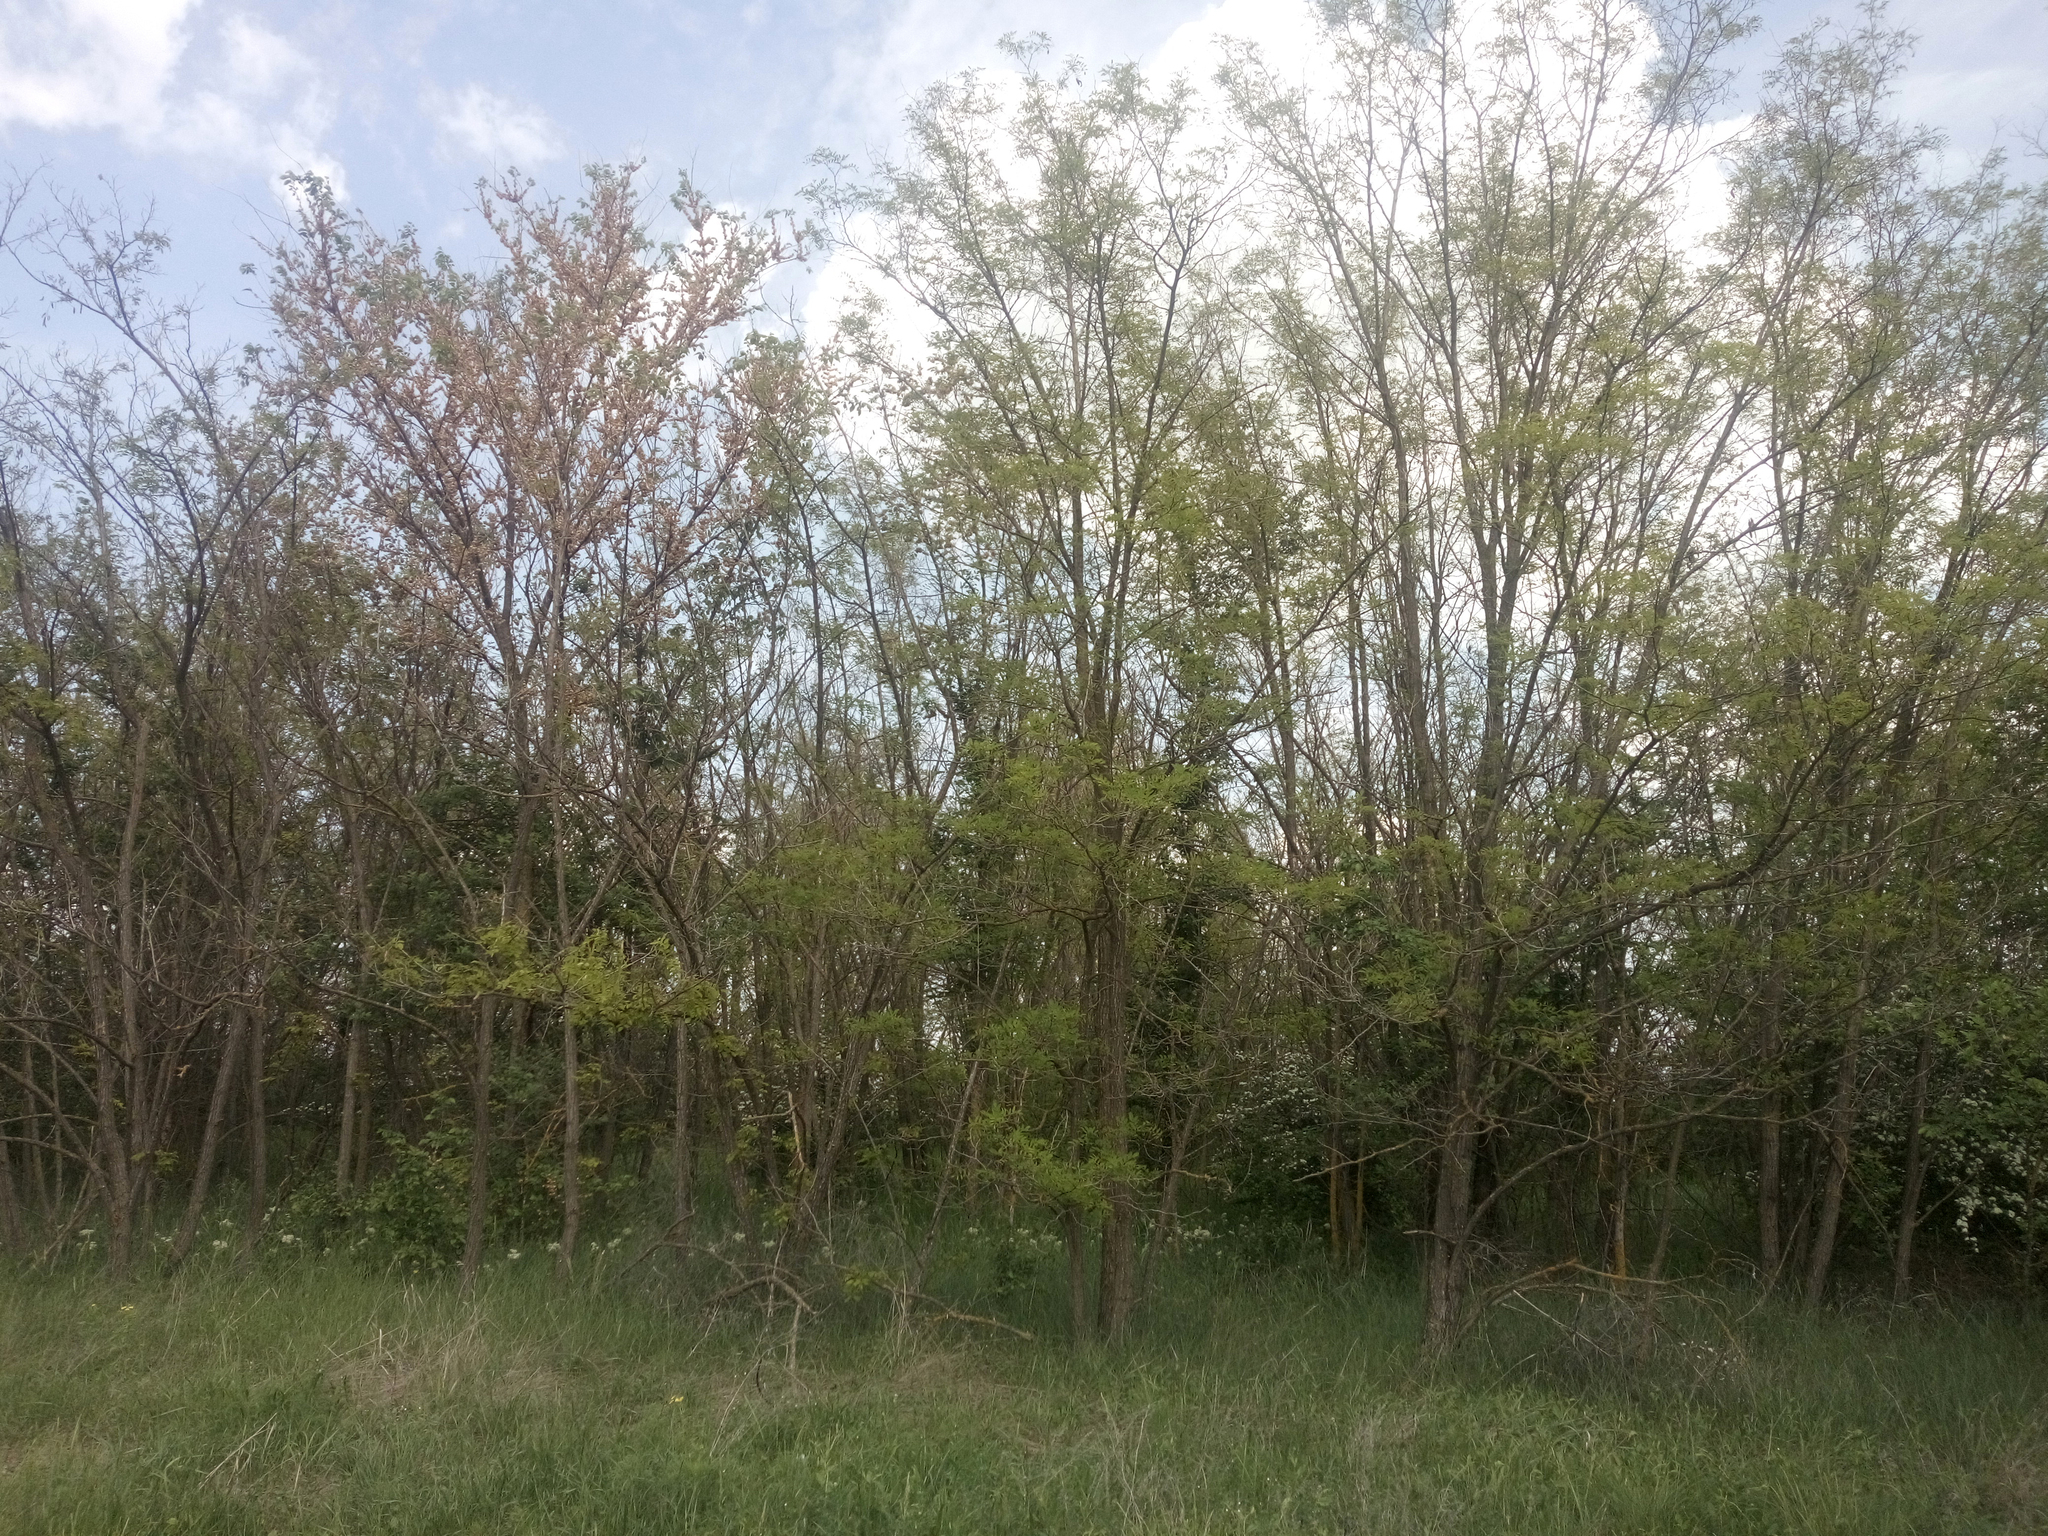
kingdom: Plantae
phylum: Tracheophyta
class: Magnoliopsida
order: Fabales
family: Fabaceae
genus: Robinia
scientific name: Robinia pseudoacacia
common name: Black locust
